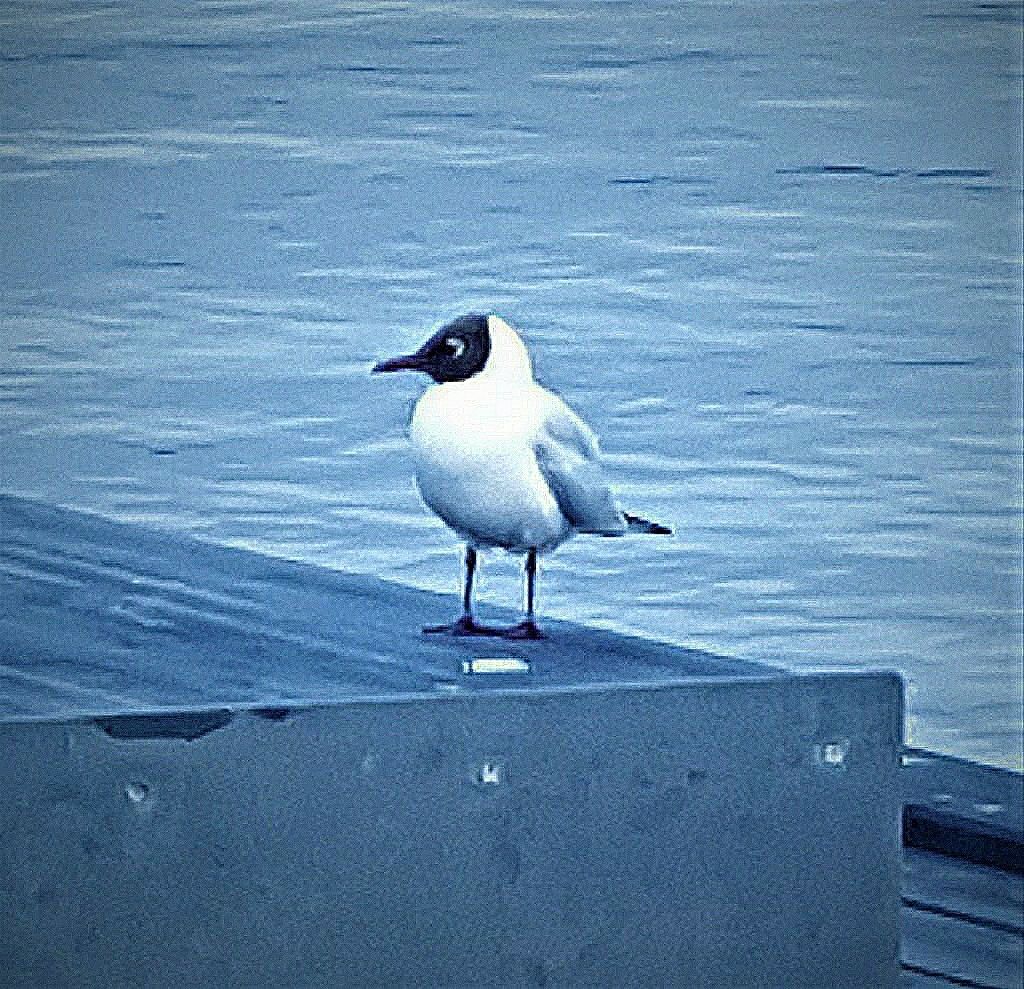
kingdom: Animalia
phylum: Chordata
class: Aves
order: Charadriiformes
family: Laridae
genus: Chroicocephalus
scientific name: Chroicocephalus ridibundus
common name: Black-headed gull
